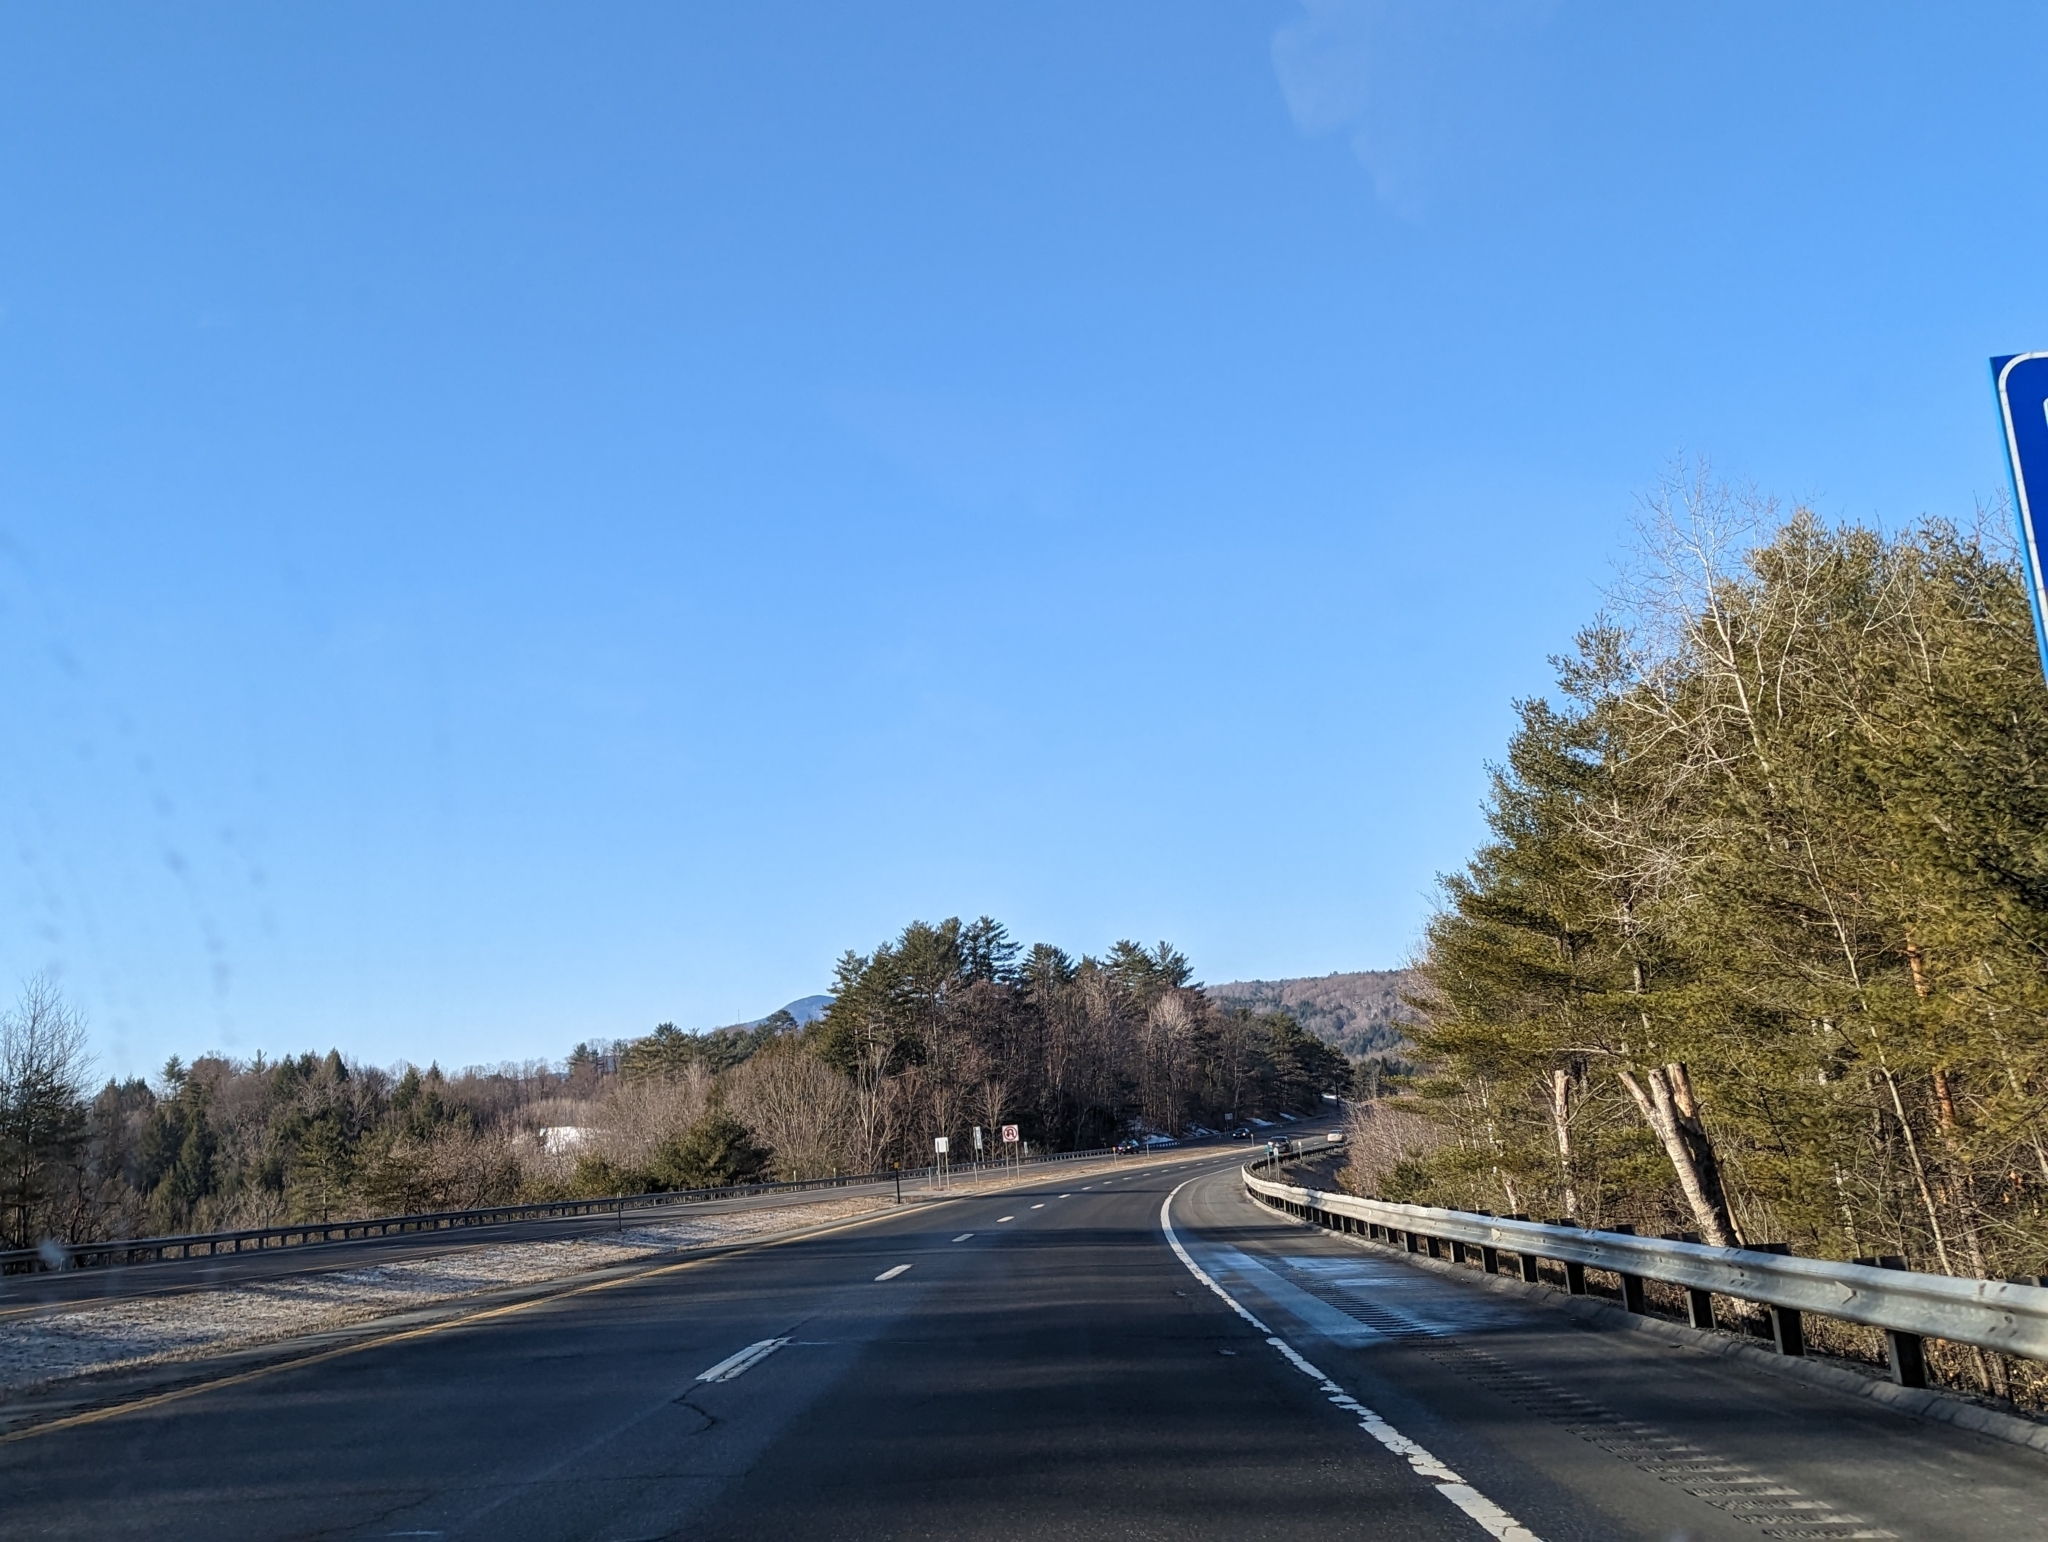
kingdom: Plantae
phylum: Tracheophyta
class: Pinopsida
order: Pinales
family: Pinaceae
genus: Pinus
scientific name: Pinus strobus
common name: Weymouth pine
